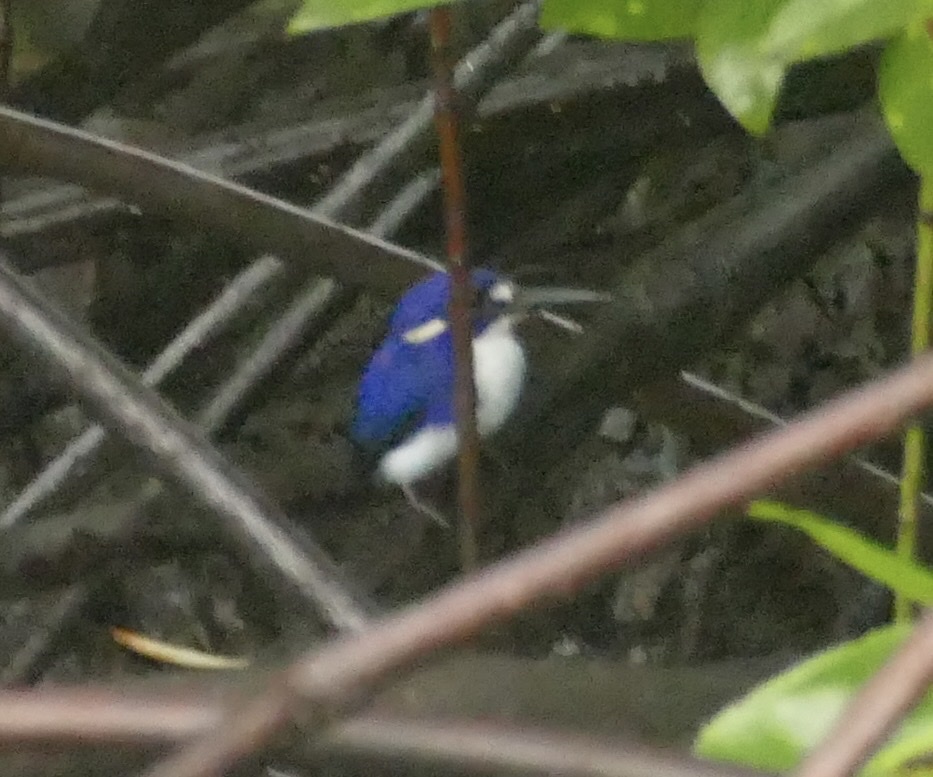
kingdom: Animalia
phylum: Chordata
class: Aves
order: Coraciiformes
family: Alcedinidae
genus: Ceyx
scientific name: Ceyx pusillus
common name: Little kingfisher
